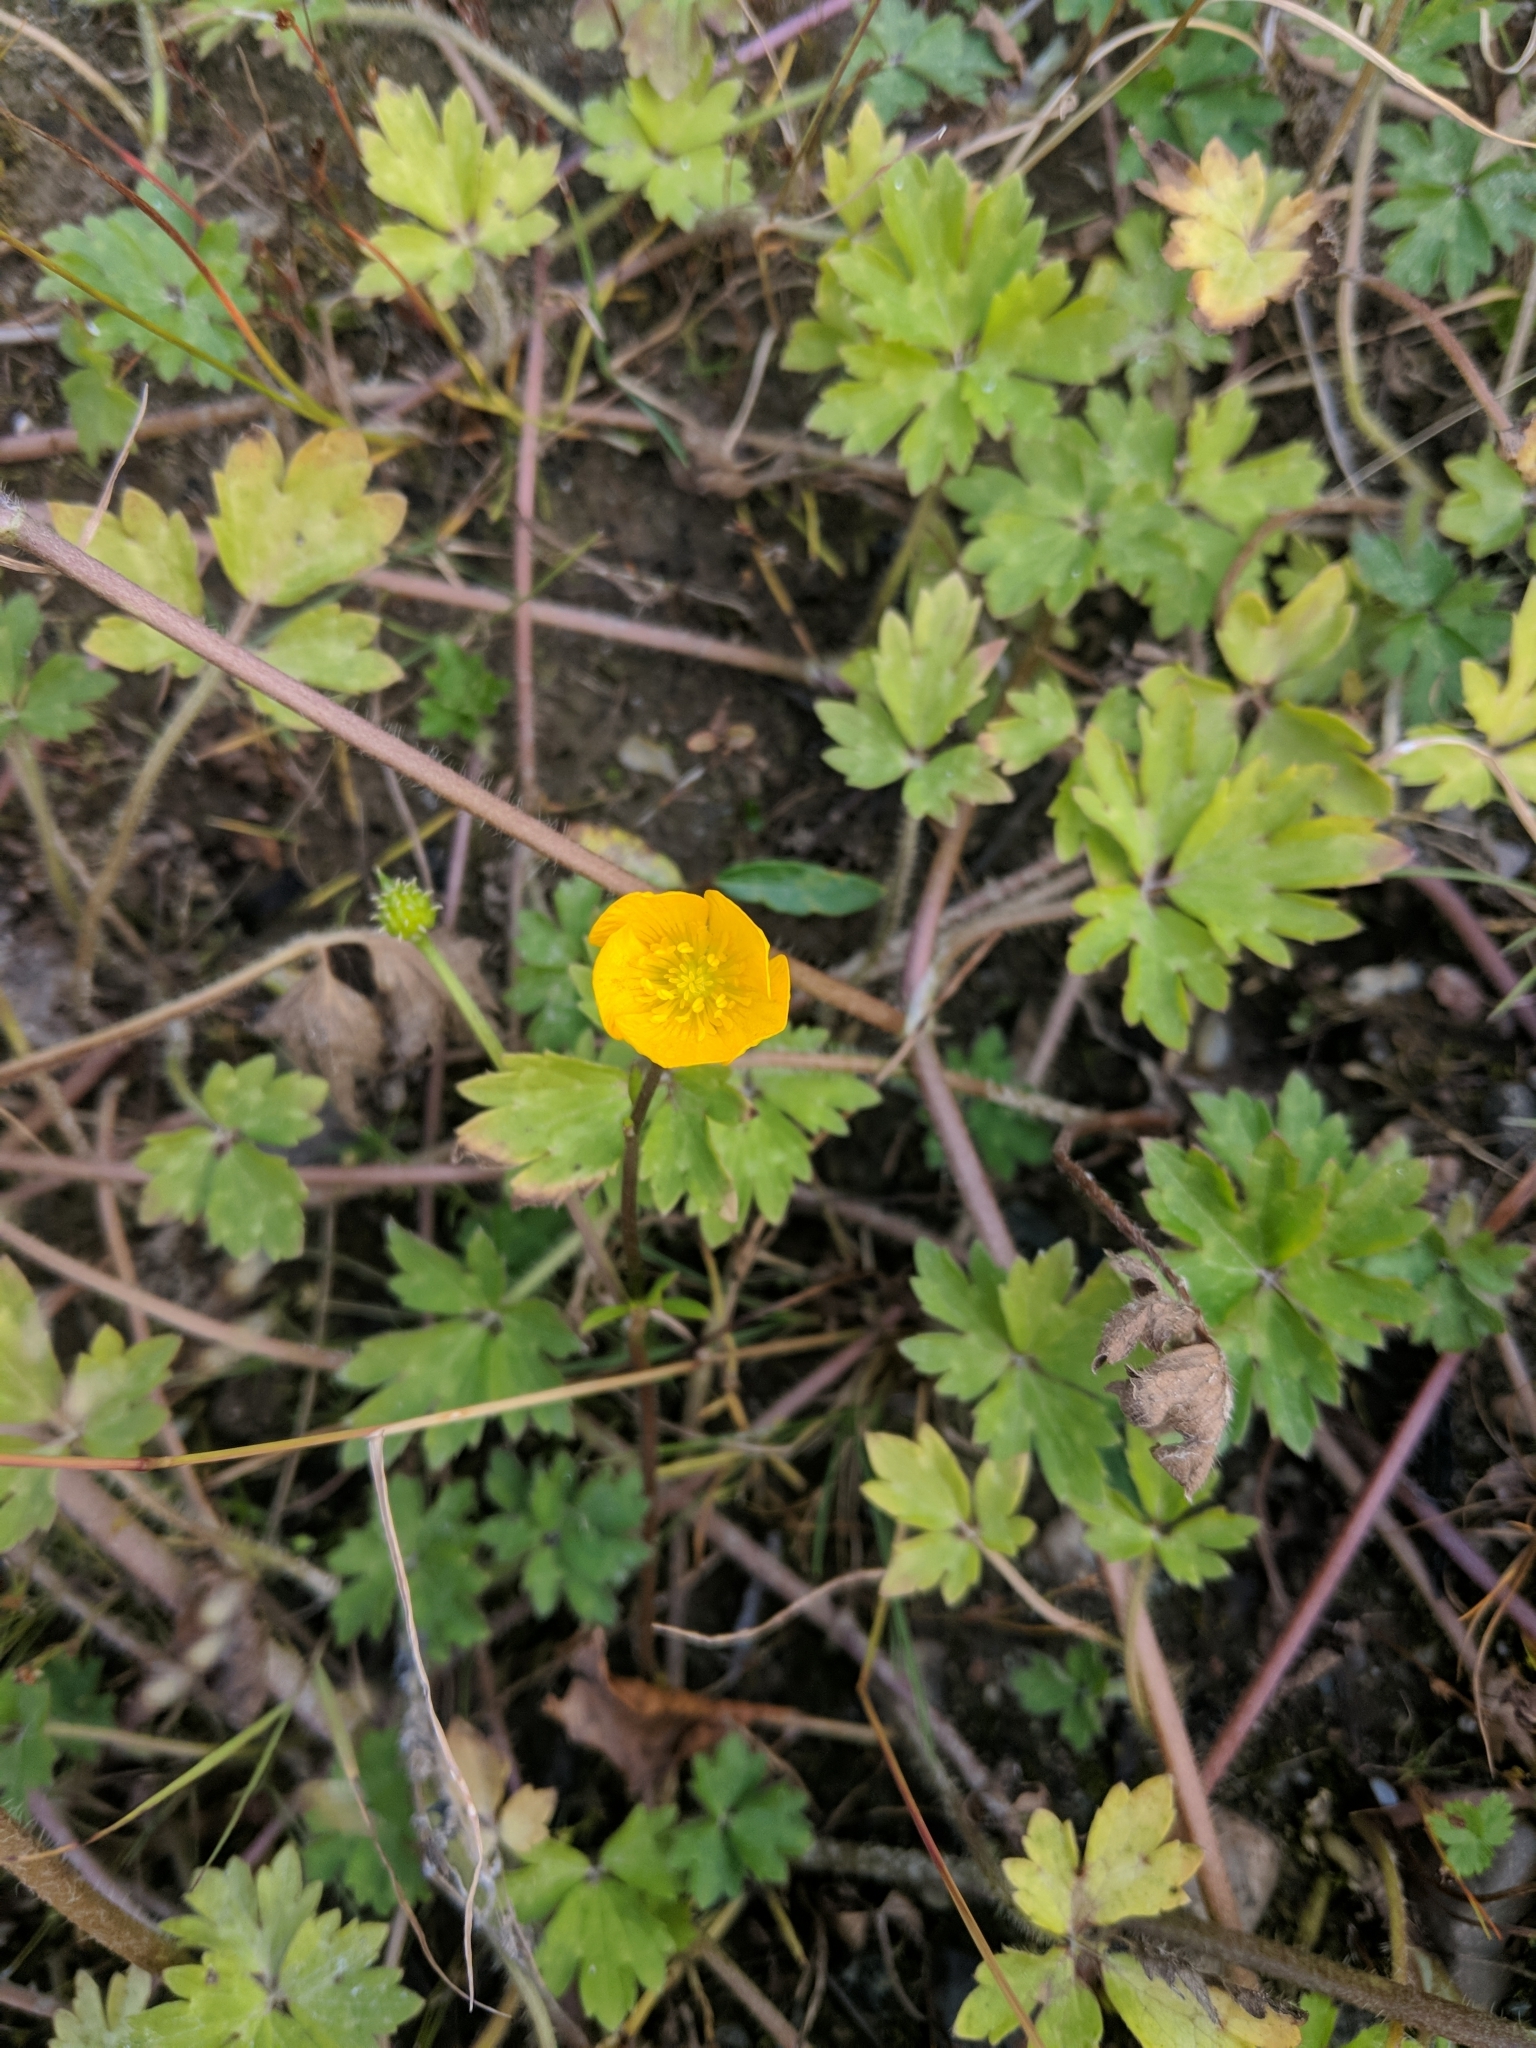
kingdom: Plantae
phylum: Tracheophyta
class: Magnoliopsida
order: Ranunculales
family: Ranunculaceae
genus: Ranunculus
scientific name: Ranunculus repens
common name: Creeping buttercup
